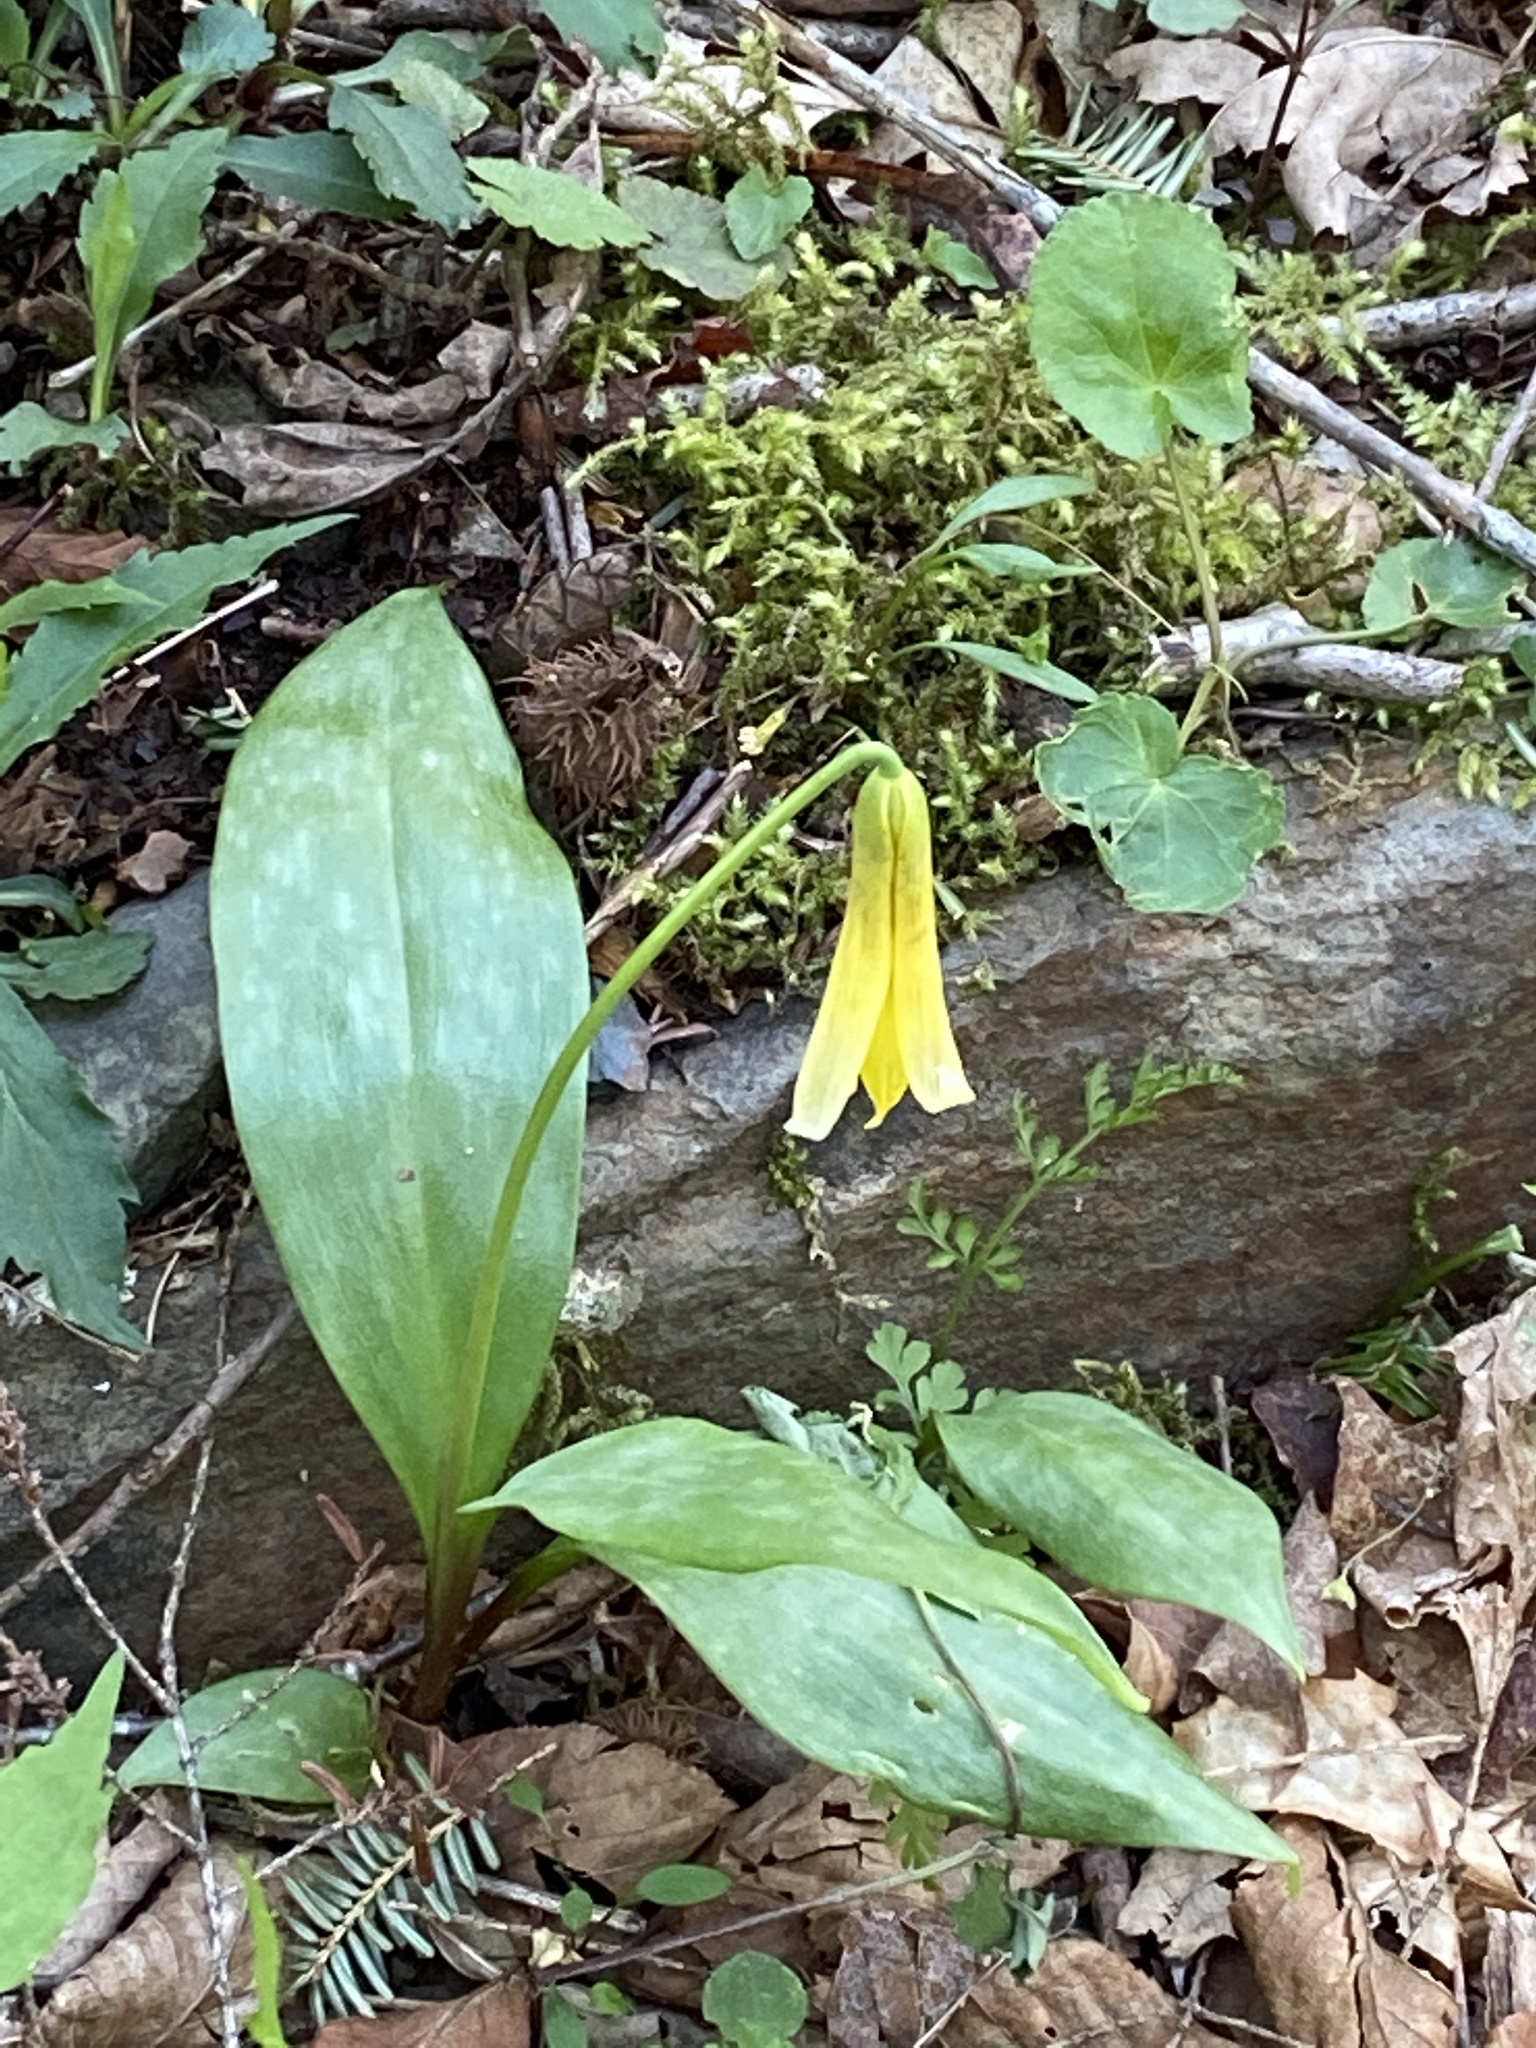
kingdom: Plantae
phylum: Tracheophyta
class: Liliopsida
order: Liliales
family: Liliaceae
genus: Erythronium
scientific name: Erythronium americanum
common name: Yellow adder's-tongue
